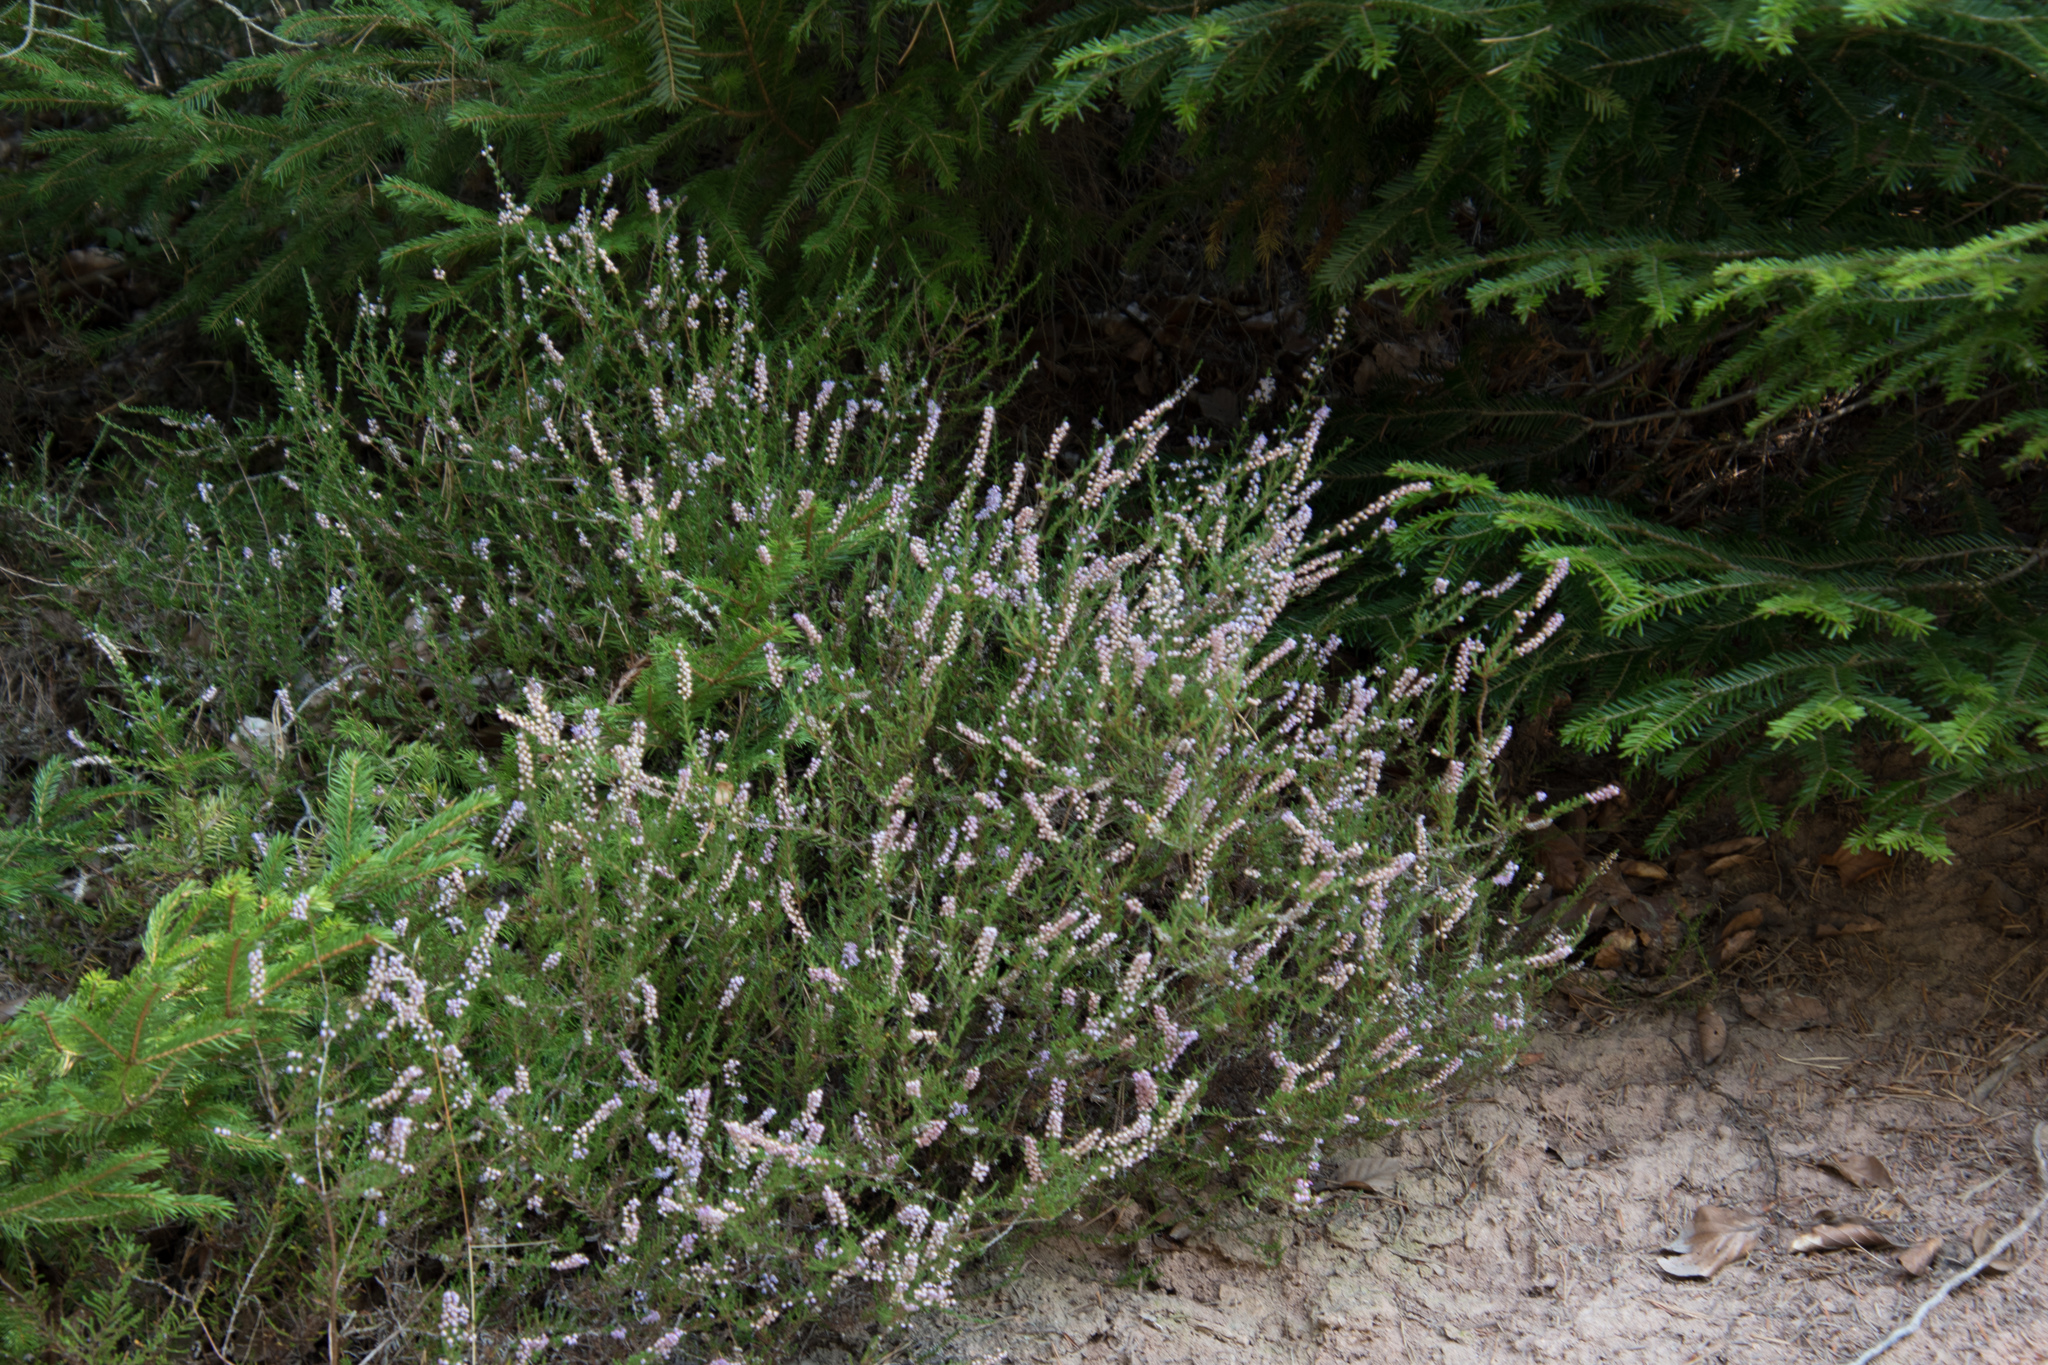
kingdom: Plantae
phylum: Tracheophyta
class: Magnoliopsida
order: Ericales
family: Ericaceae
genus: Calluna
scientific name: Calluna vulgaris
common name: Heather
